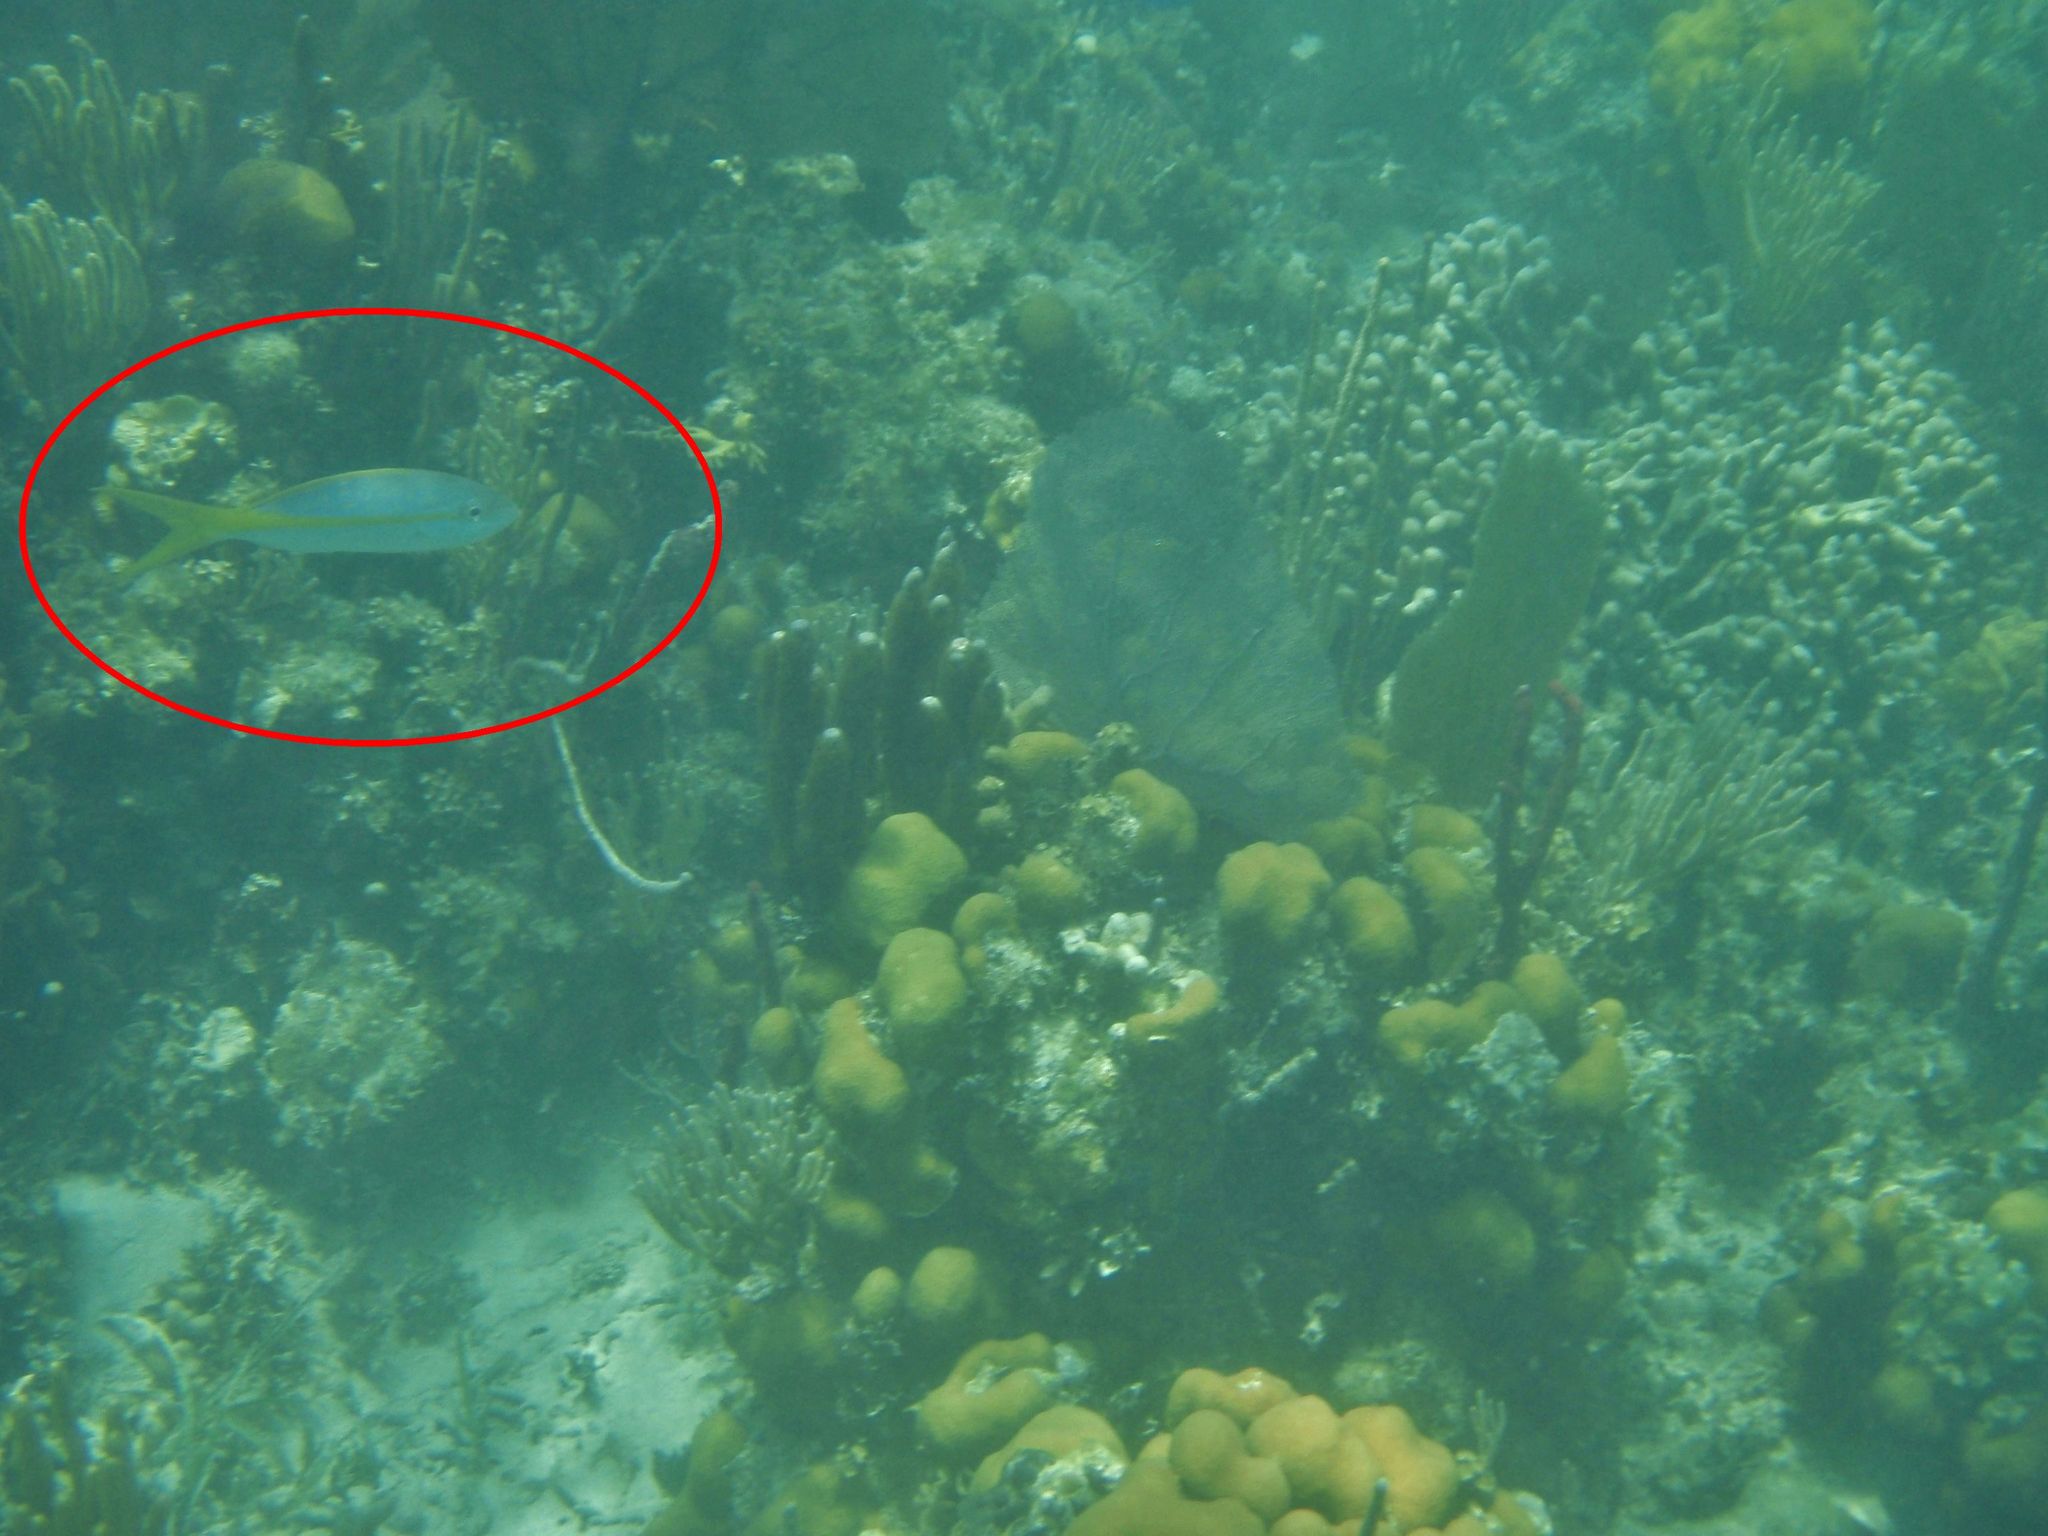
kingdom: Animalia
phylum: Chordata
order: Perciformes
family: Lutjanidae
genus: Ocyurus
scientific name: Ocyurus chrysurus
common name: Yellowtail snapper
